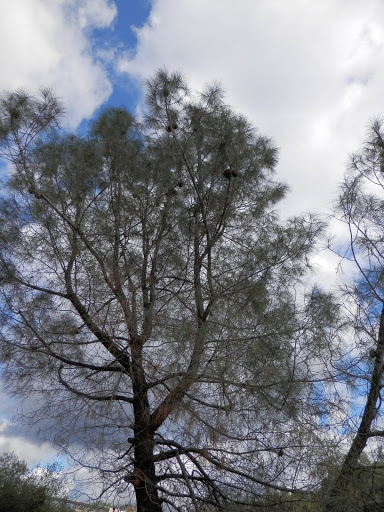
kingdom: Plantae
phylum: Tracheophyta
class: Pinopsida
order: Pinales
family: Pinaceae
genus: Pinus
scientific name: Pinus sabiniana
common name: Bull pine
